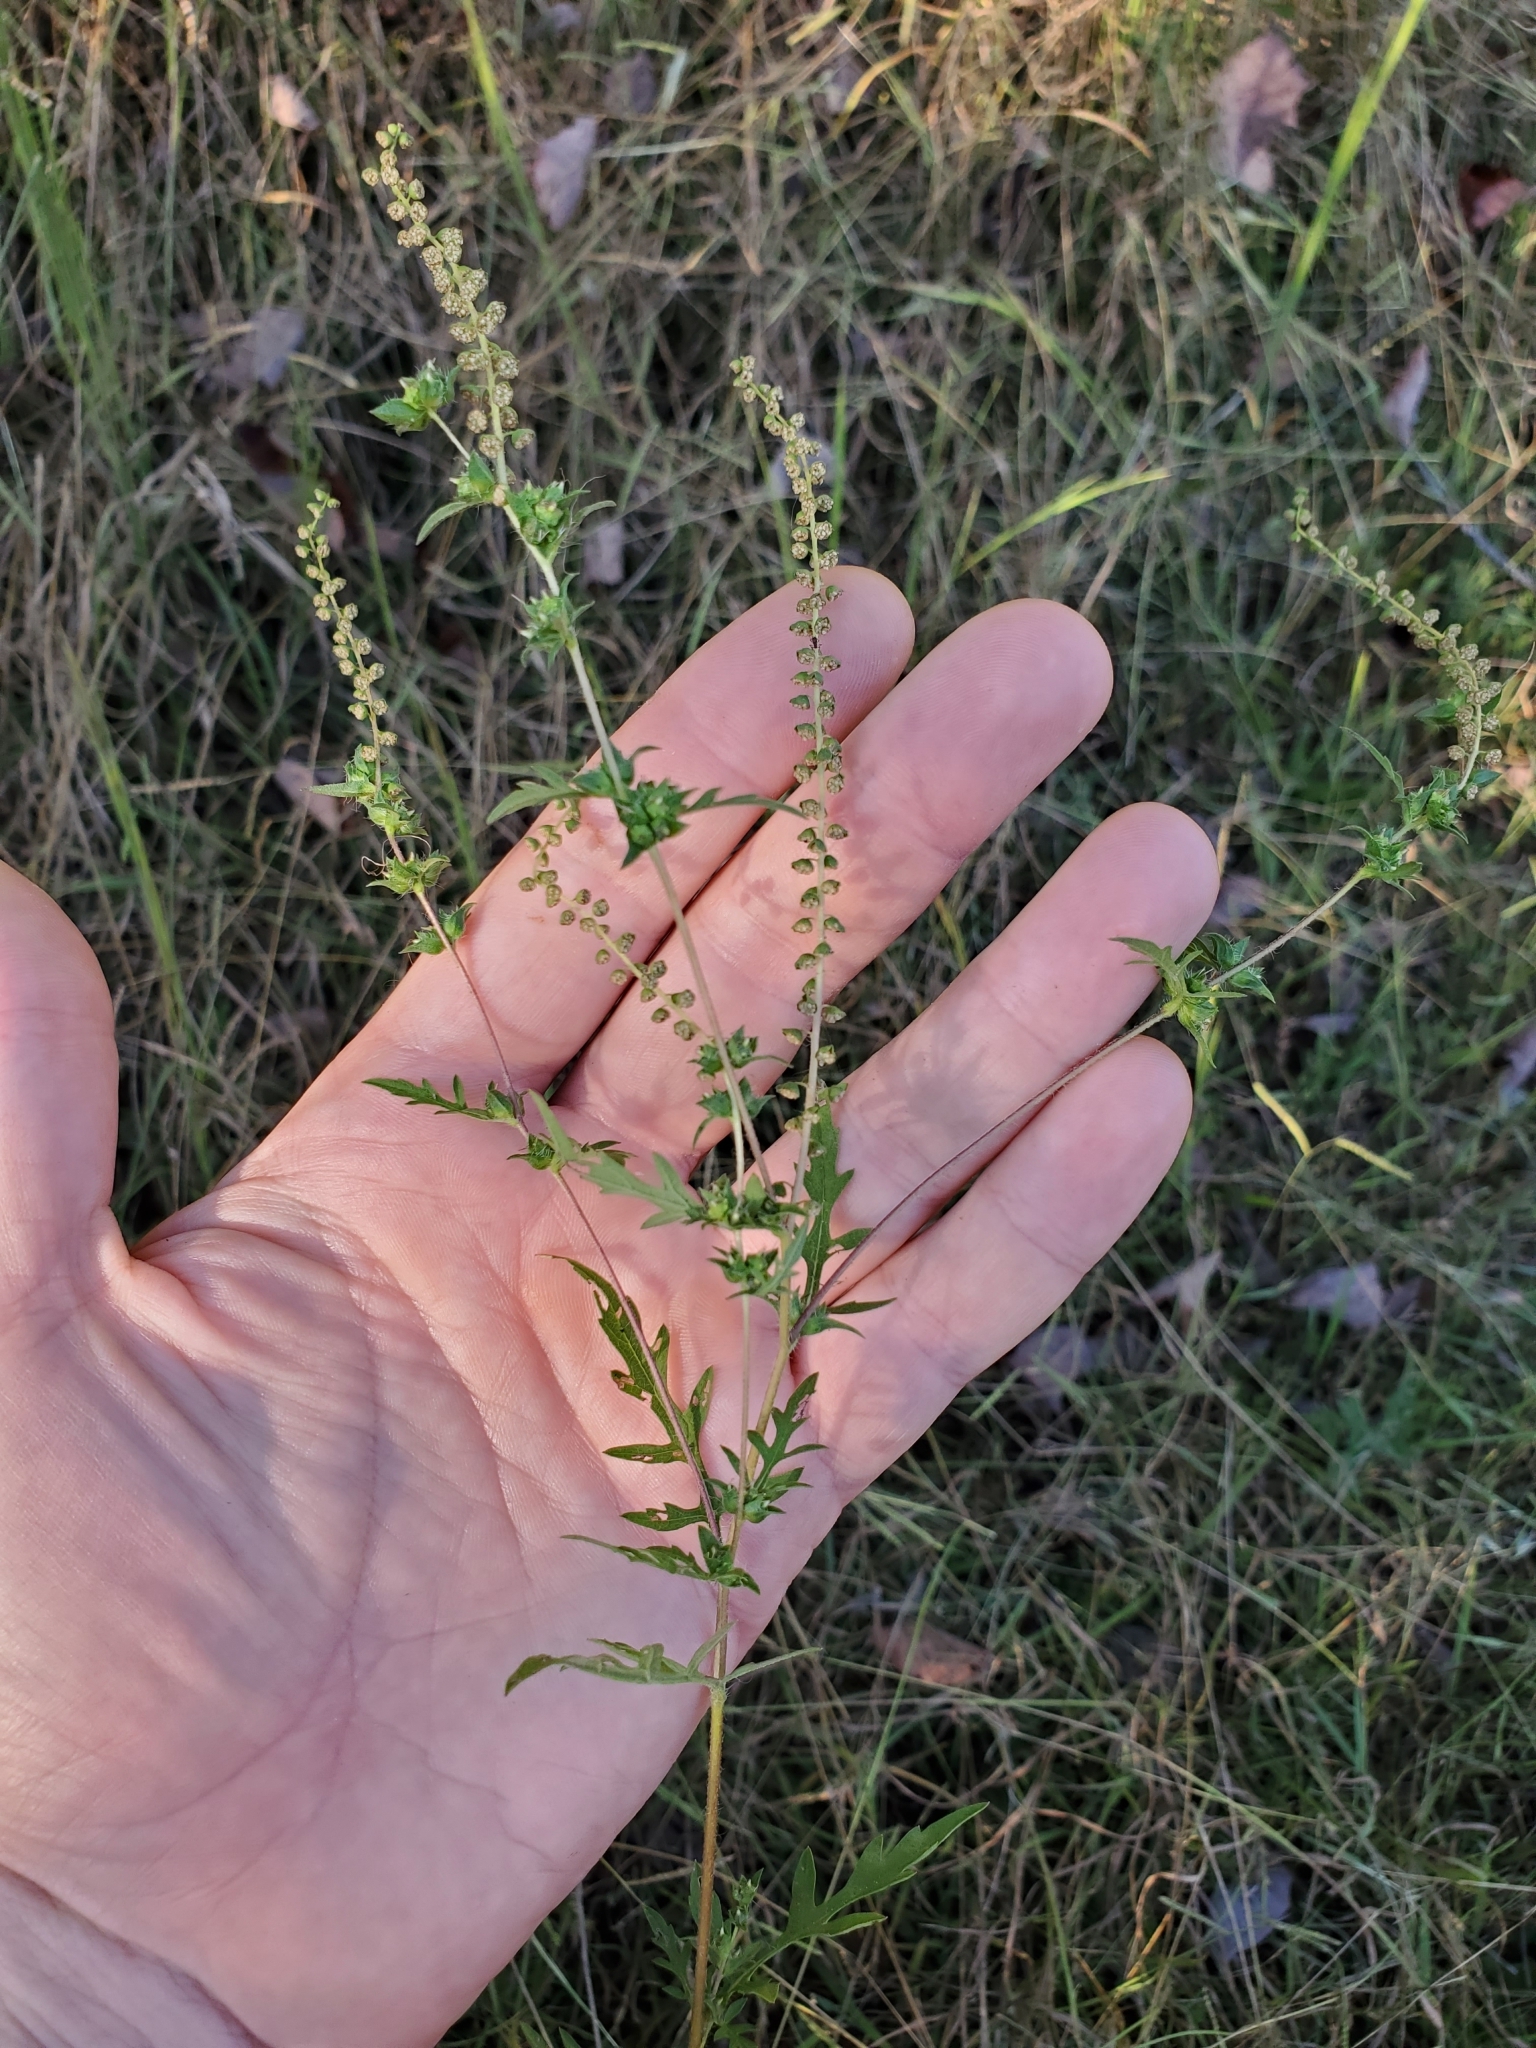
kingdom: Plantae
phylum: Tracheophyta
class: Magnoliopsida
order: Asterales
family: Asteraceae
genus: Ambrosia
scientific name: Ambrosia artemisiifolia
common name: Annual ragweed
